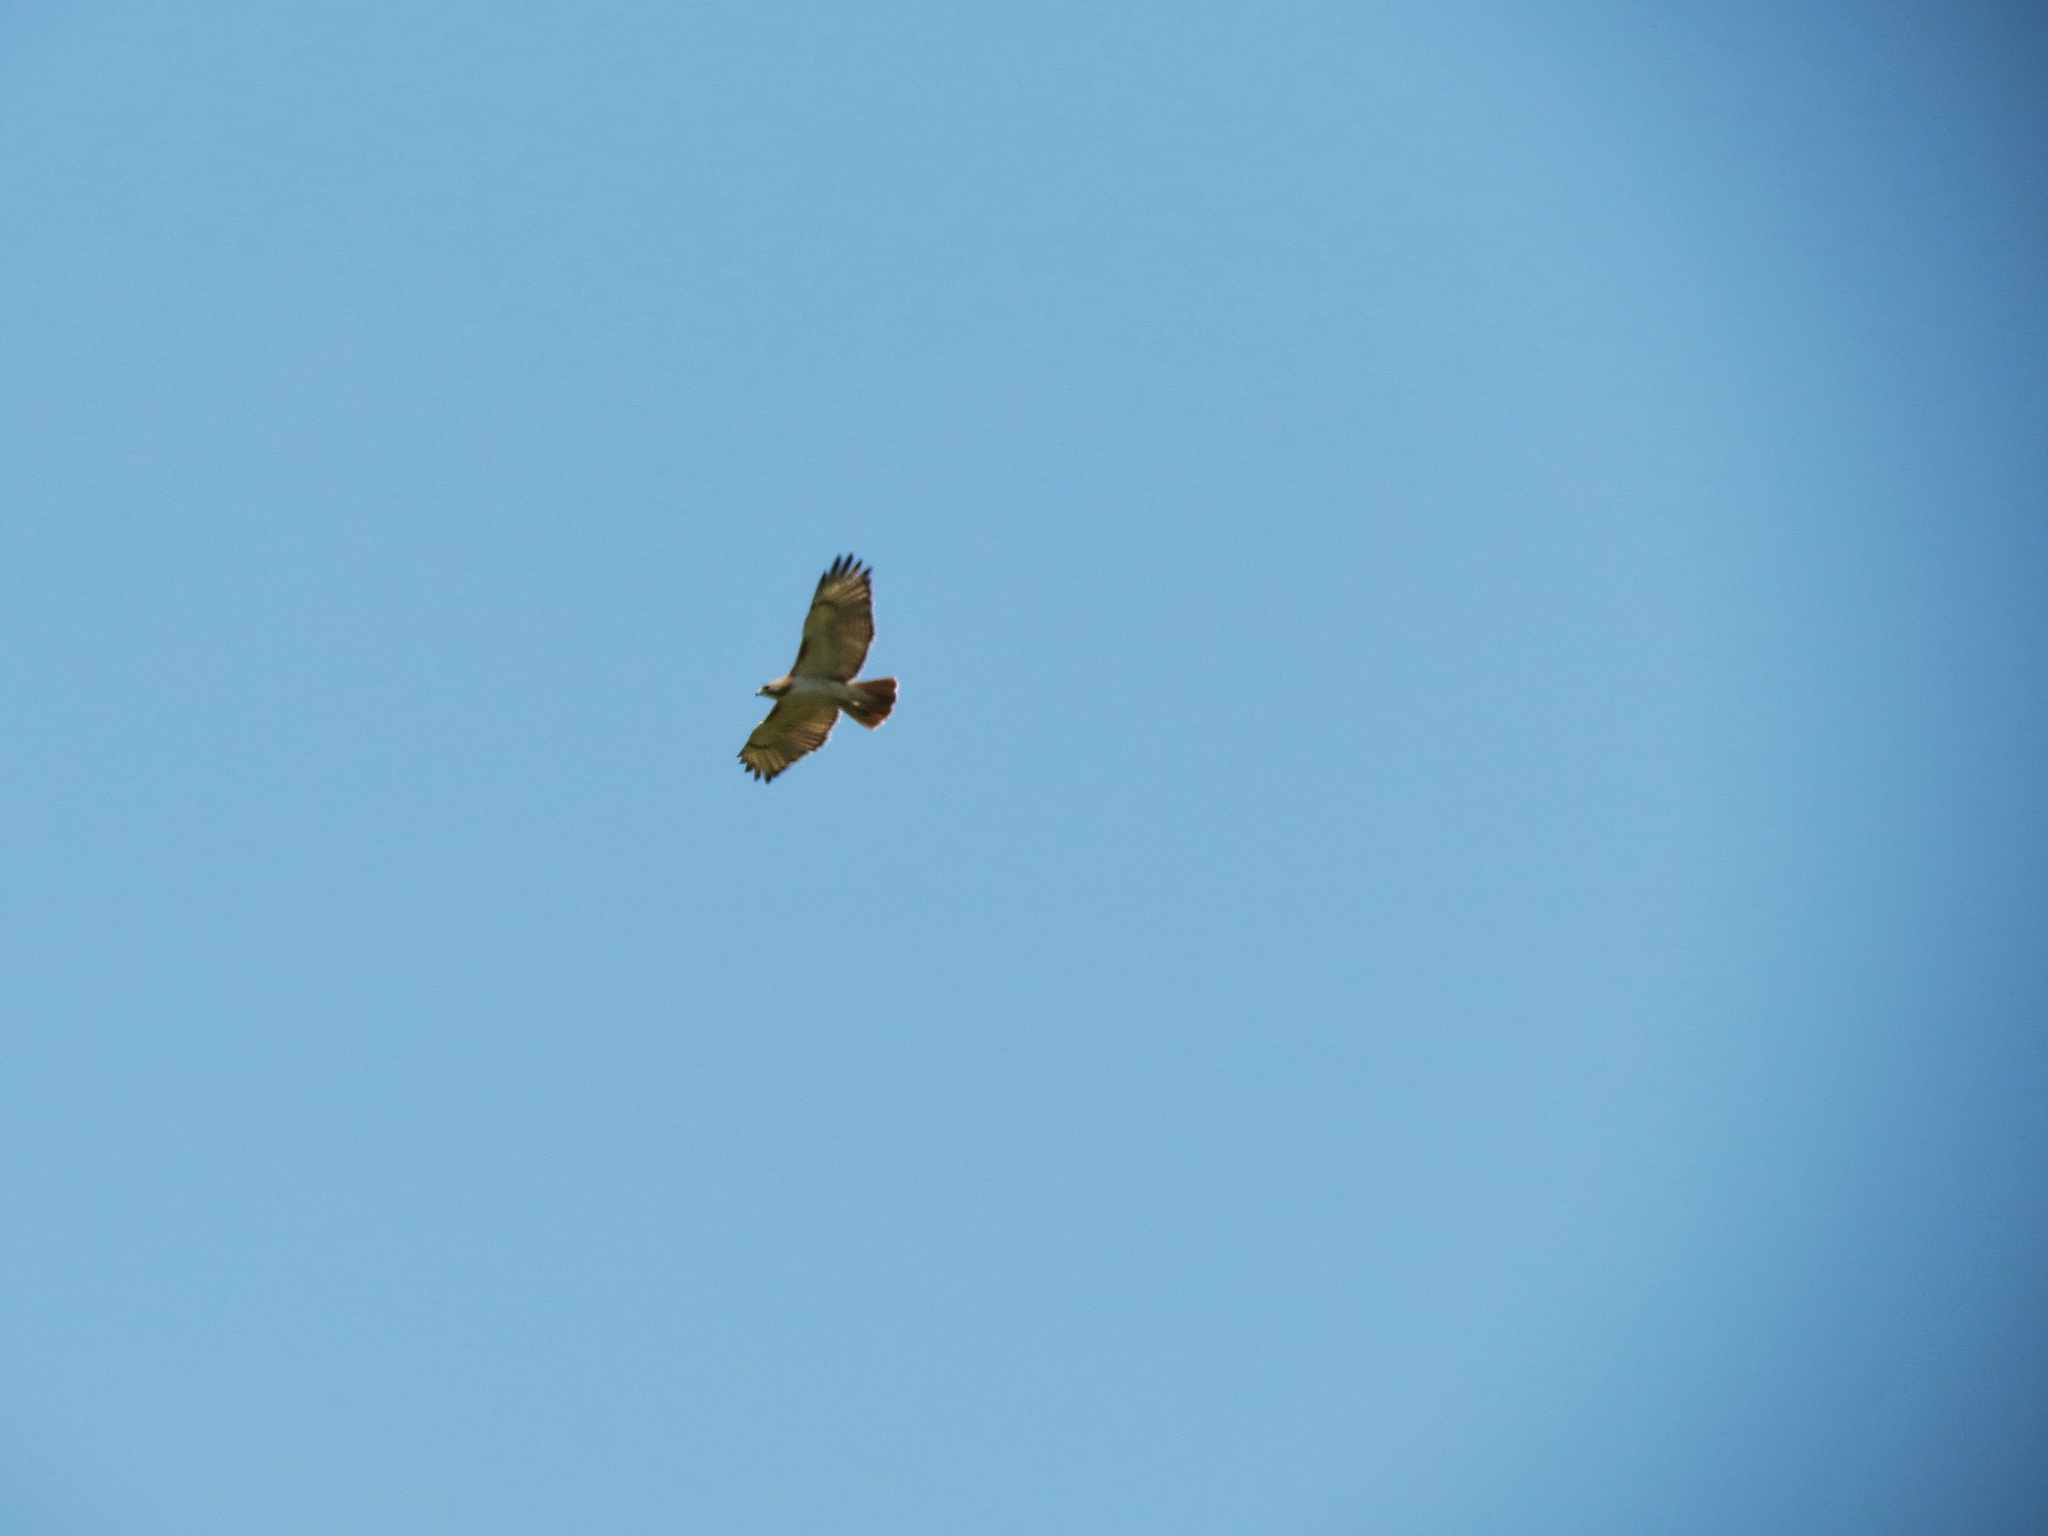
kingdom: Animalia
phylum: Chordata
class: Aves
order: Accipitriformes
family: Accipitridae
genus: Buteo
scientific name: Buteo jamaicensis
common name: Red-tailed hawk
